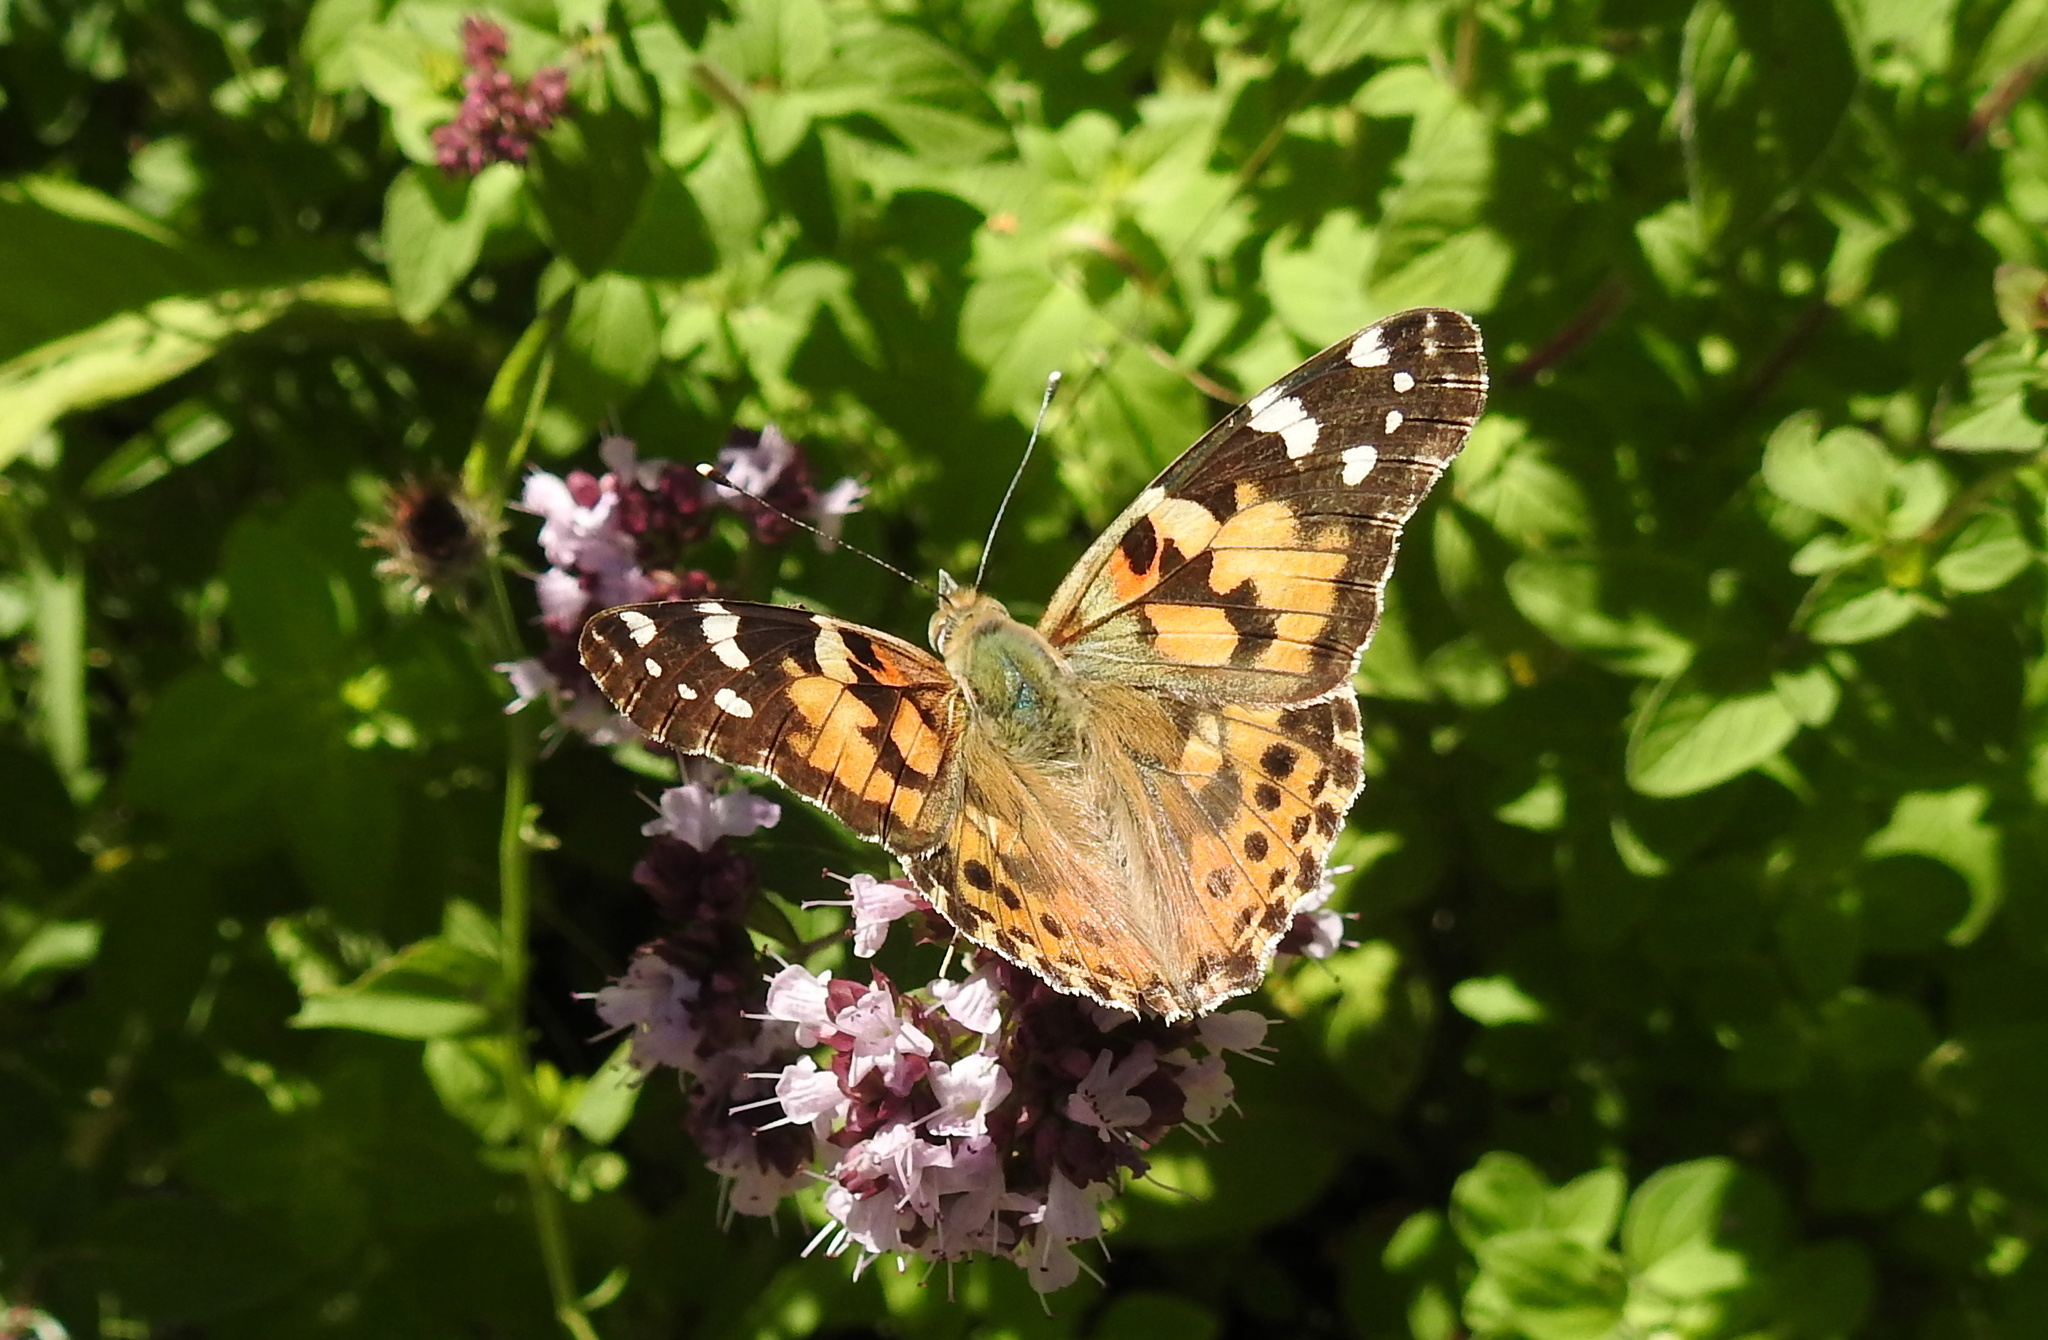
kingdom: Animalia
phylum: Arthropoda
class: Insecta
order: Lepidoptera
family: Nymphalidae
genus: Vanessa
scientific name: Vanessa cardui
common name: Painted lady
